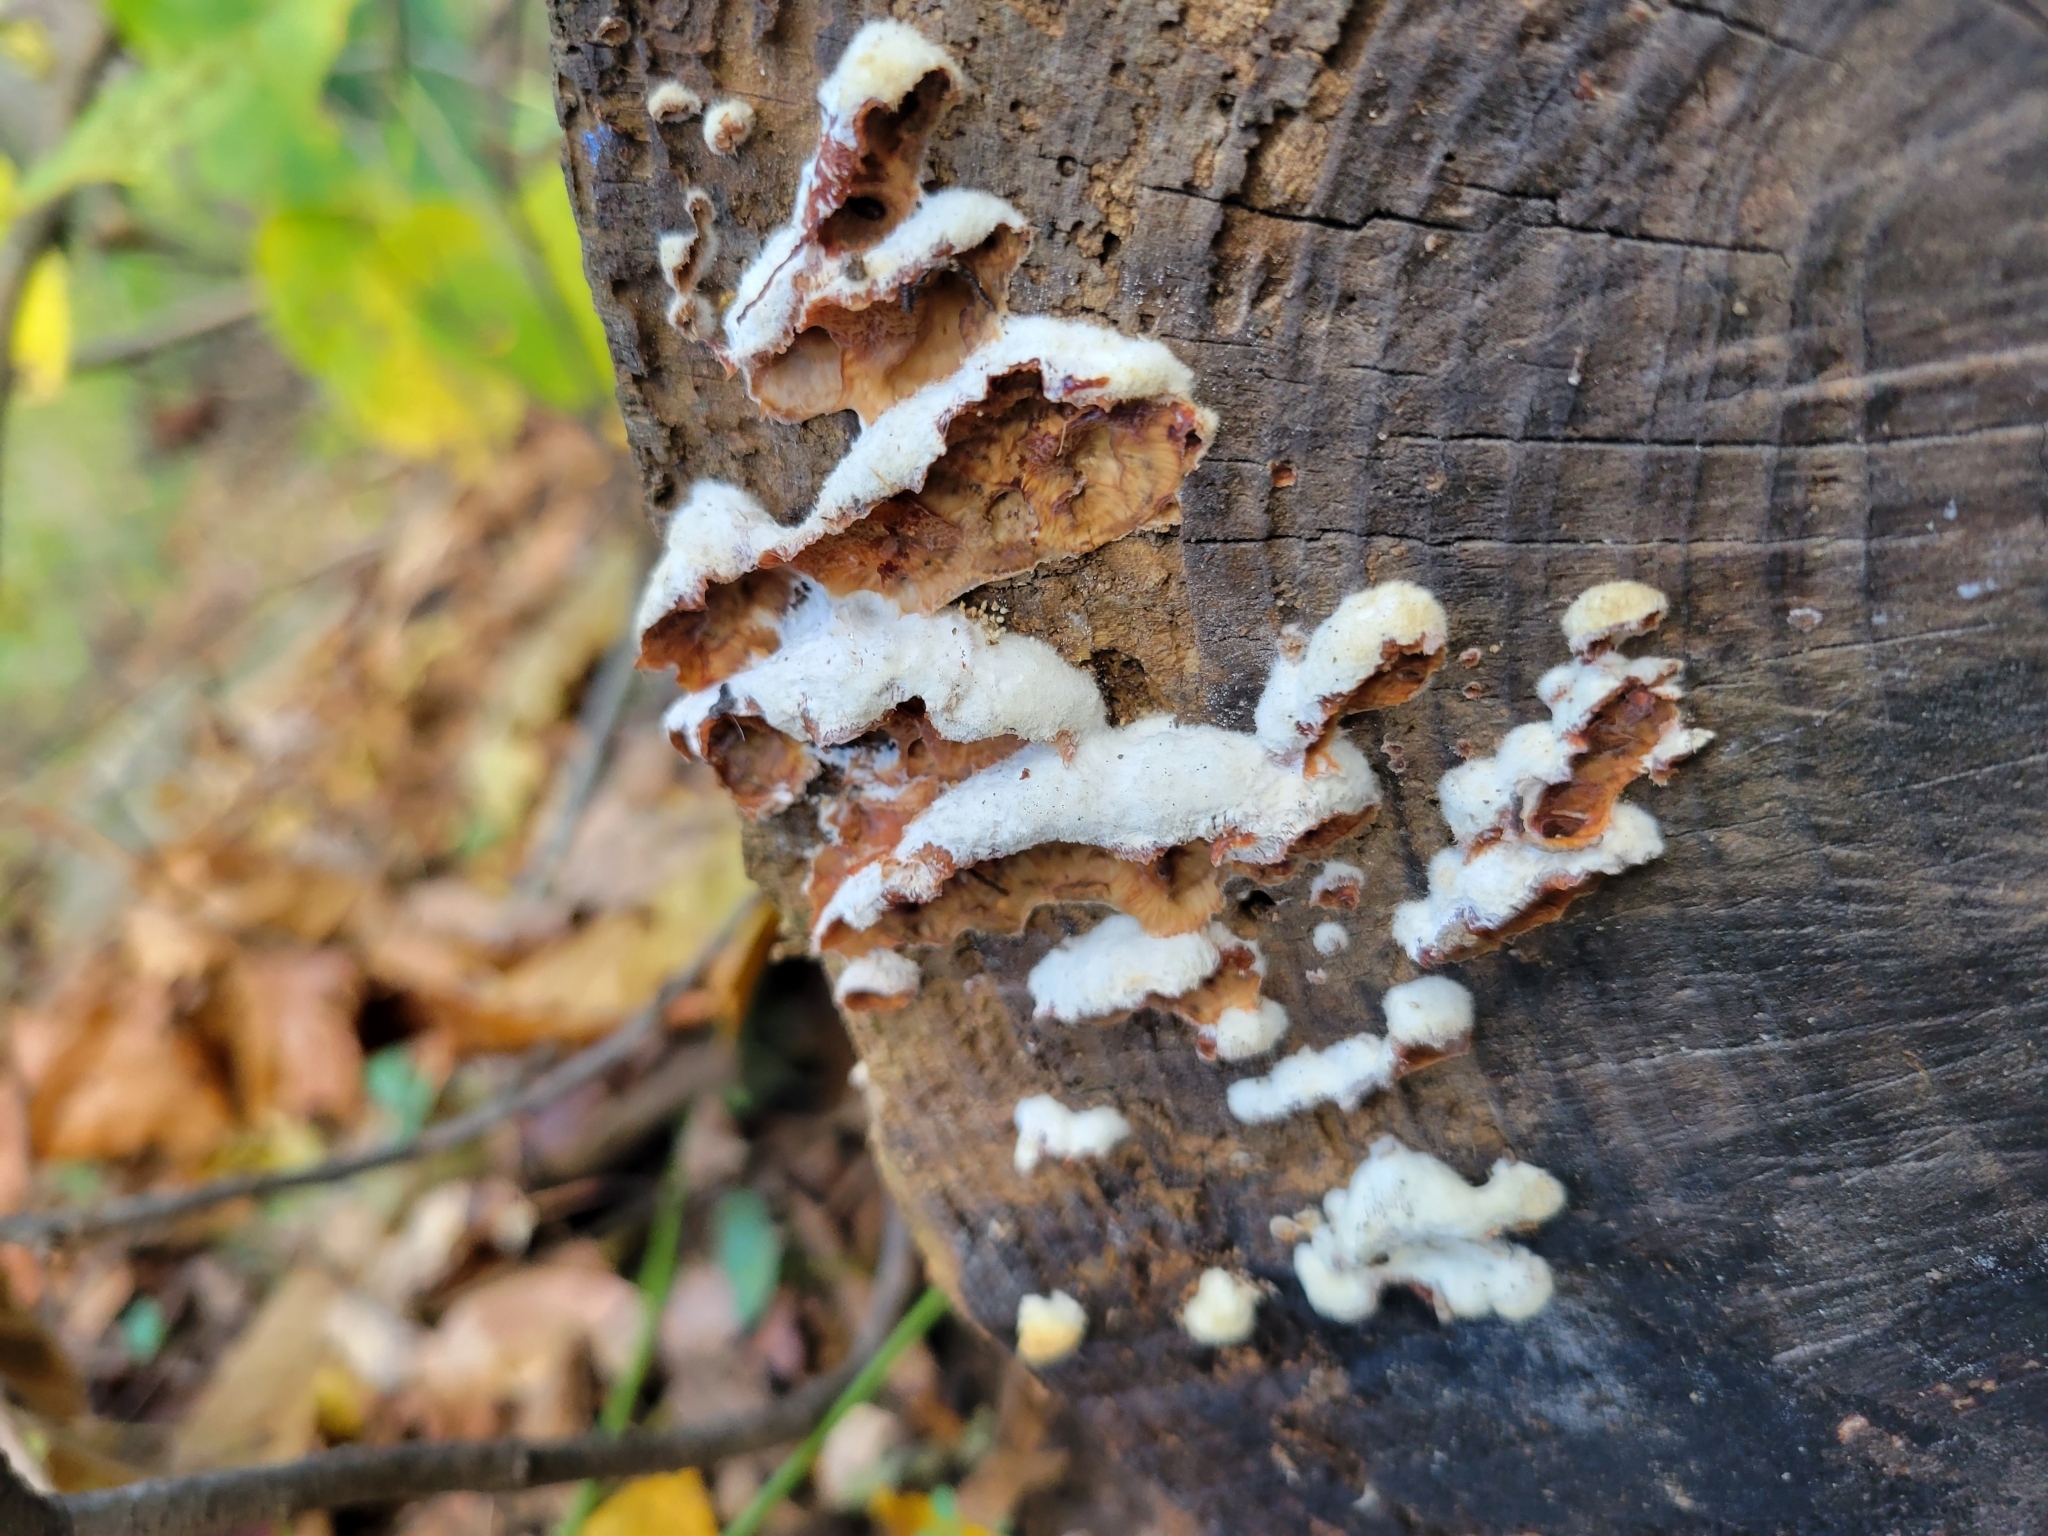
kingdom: Fungi
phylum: Basidiomycota
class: Agaricomycetes
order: Polyporales
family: Meruliaceae
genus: Phlebia
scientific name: Phlebia tremellosa
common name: Jelly rot
